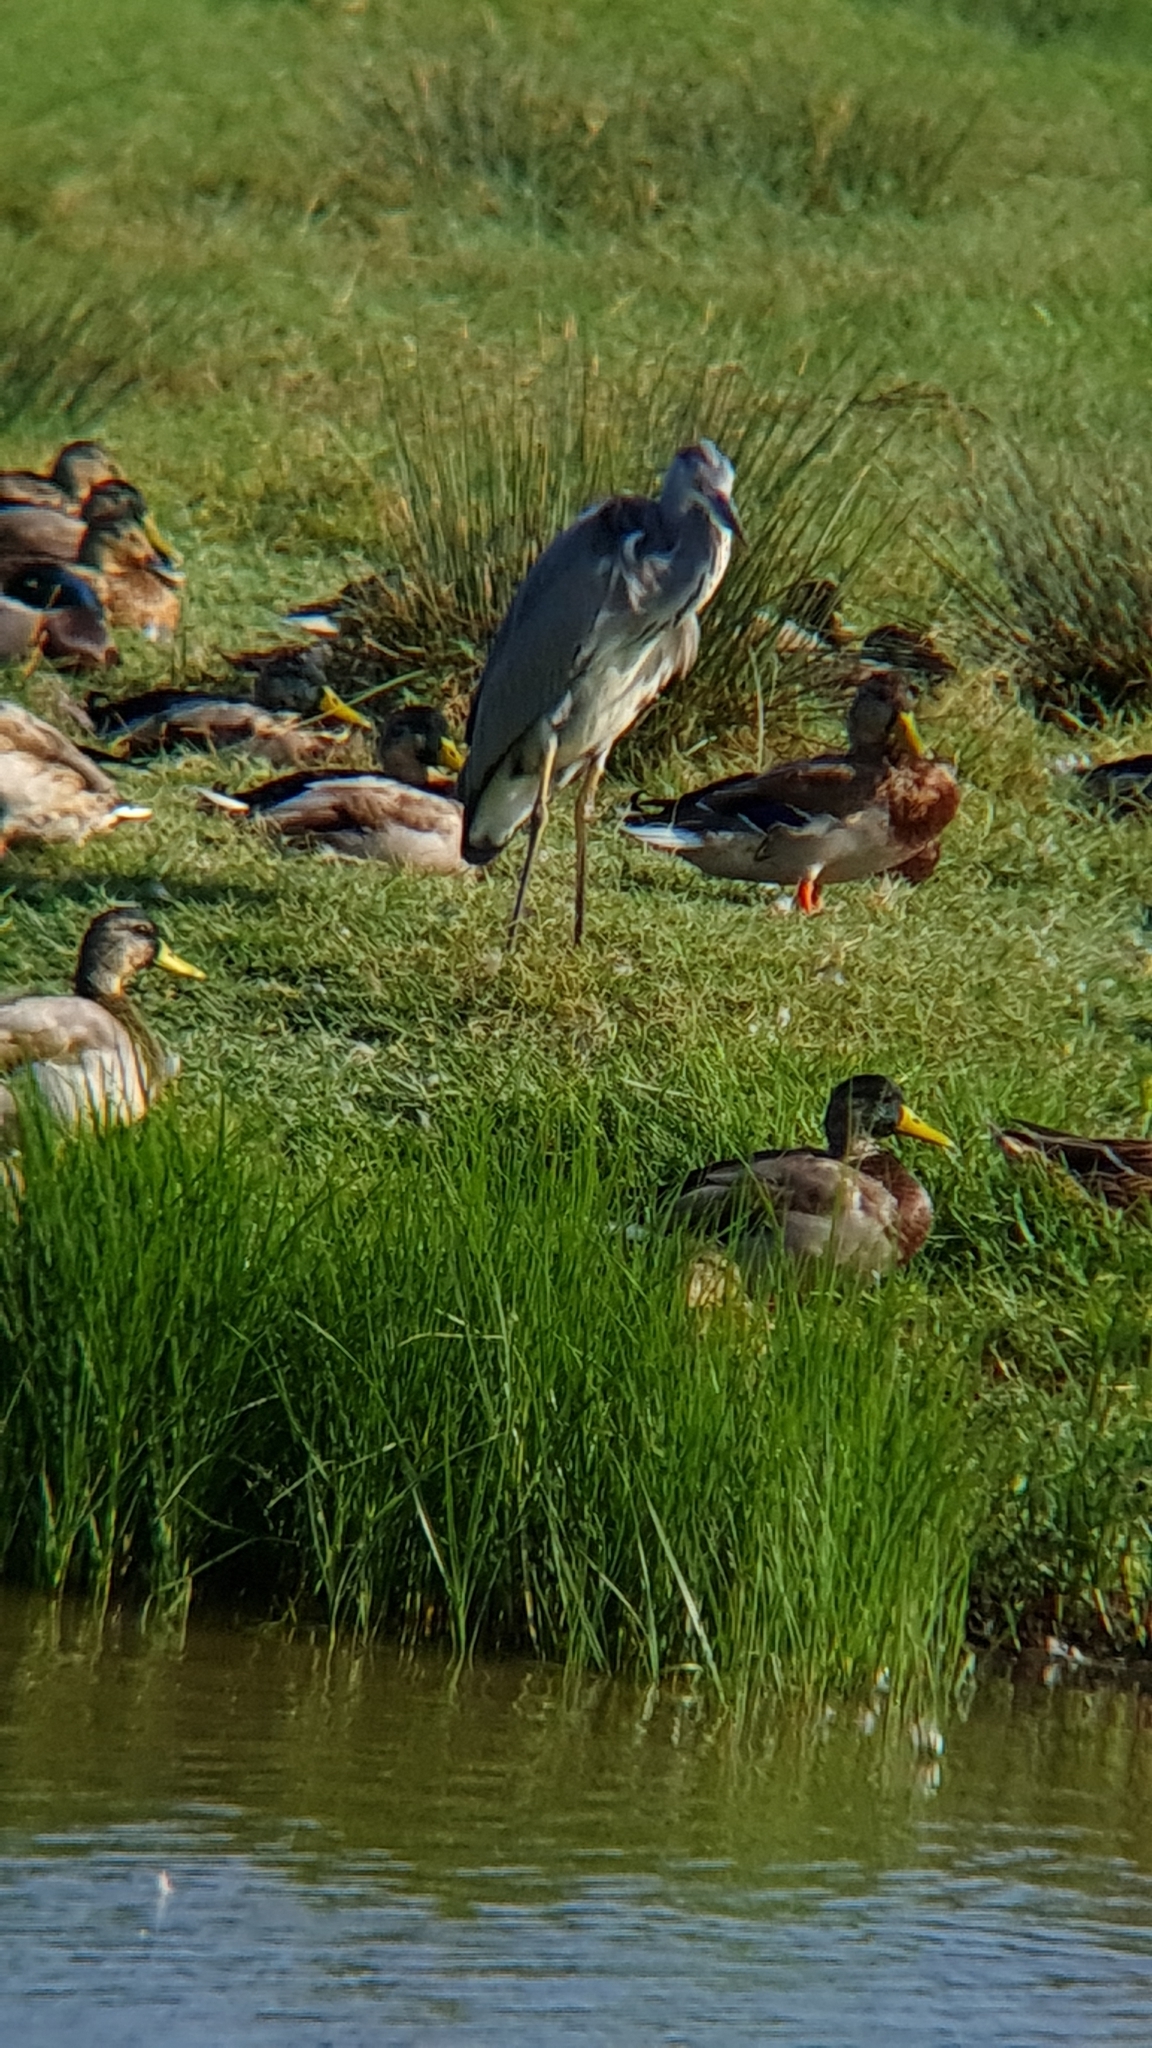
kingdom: Animalia
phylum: Chordata
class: Aves
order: Pelecaniformes
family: Ardeidae
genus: Ardea
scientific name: Ardea cinerea
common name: Grey heron
